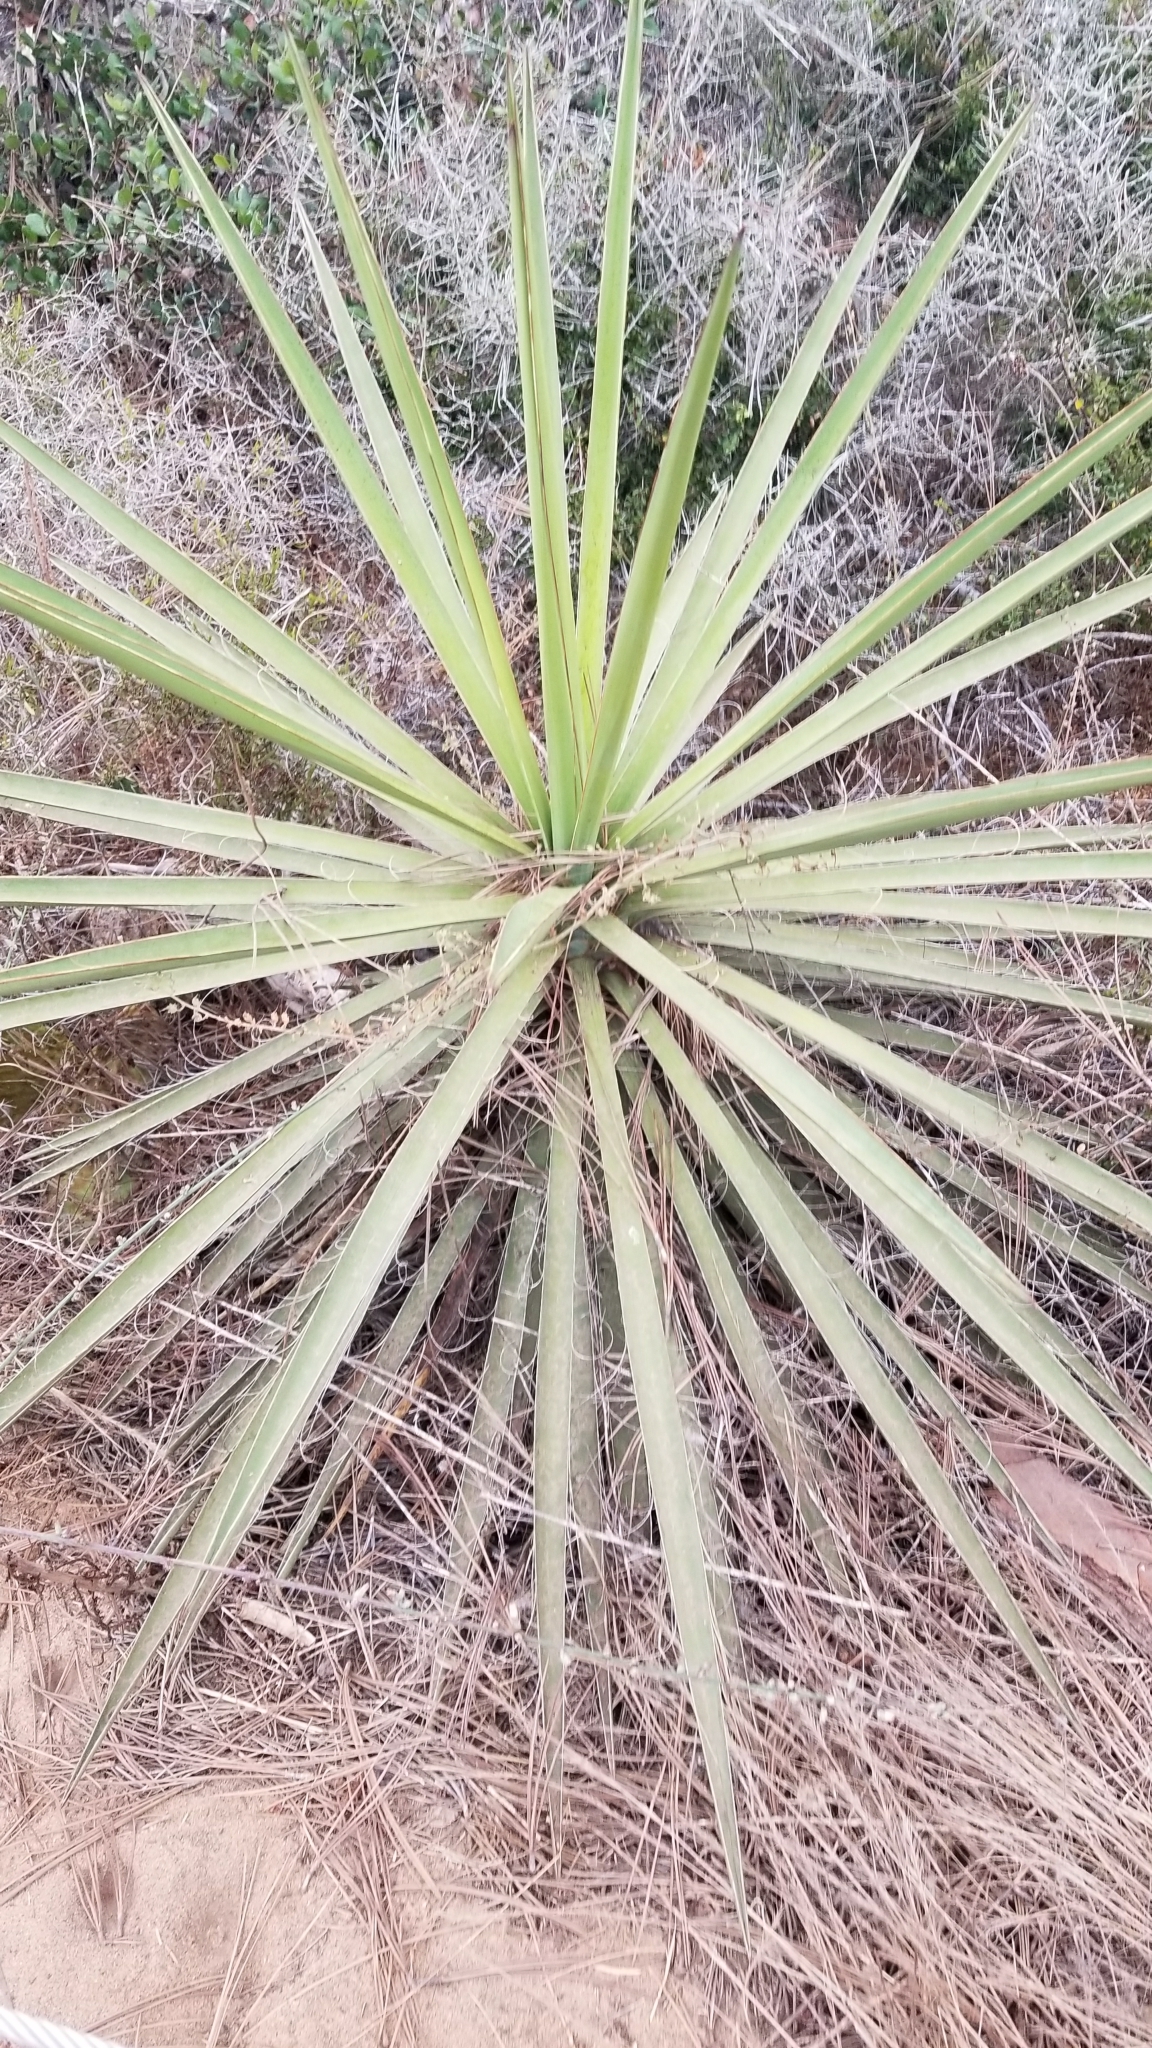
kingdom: Plantae
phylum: Tracheophyta
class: Liliopsida
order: Asparagales
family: Asparagaceae
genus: Yucca
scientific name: Yucca schidigera
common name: Mojave yucca
